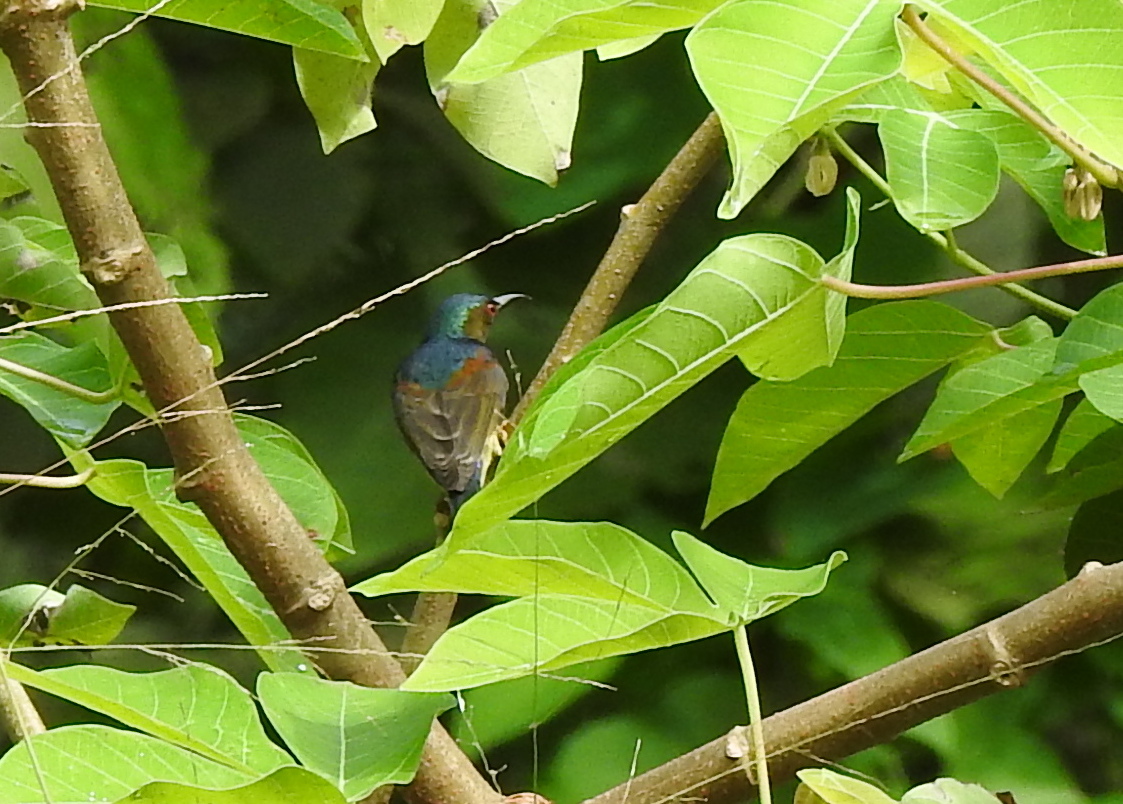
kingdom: Animalia
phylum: Chordata
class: Aves
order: Passeriformes
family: Nectariniidae
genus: Anthreptes
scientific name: Anthreptes malacensis
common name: Brown-throated sunbird
